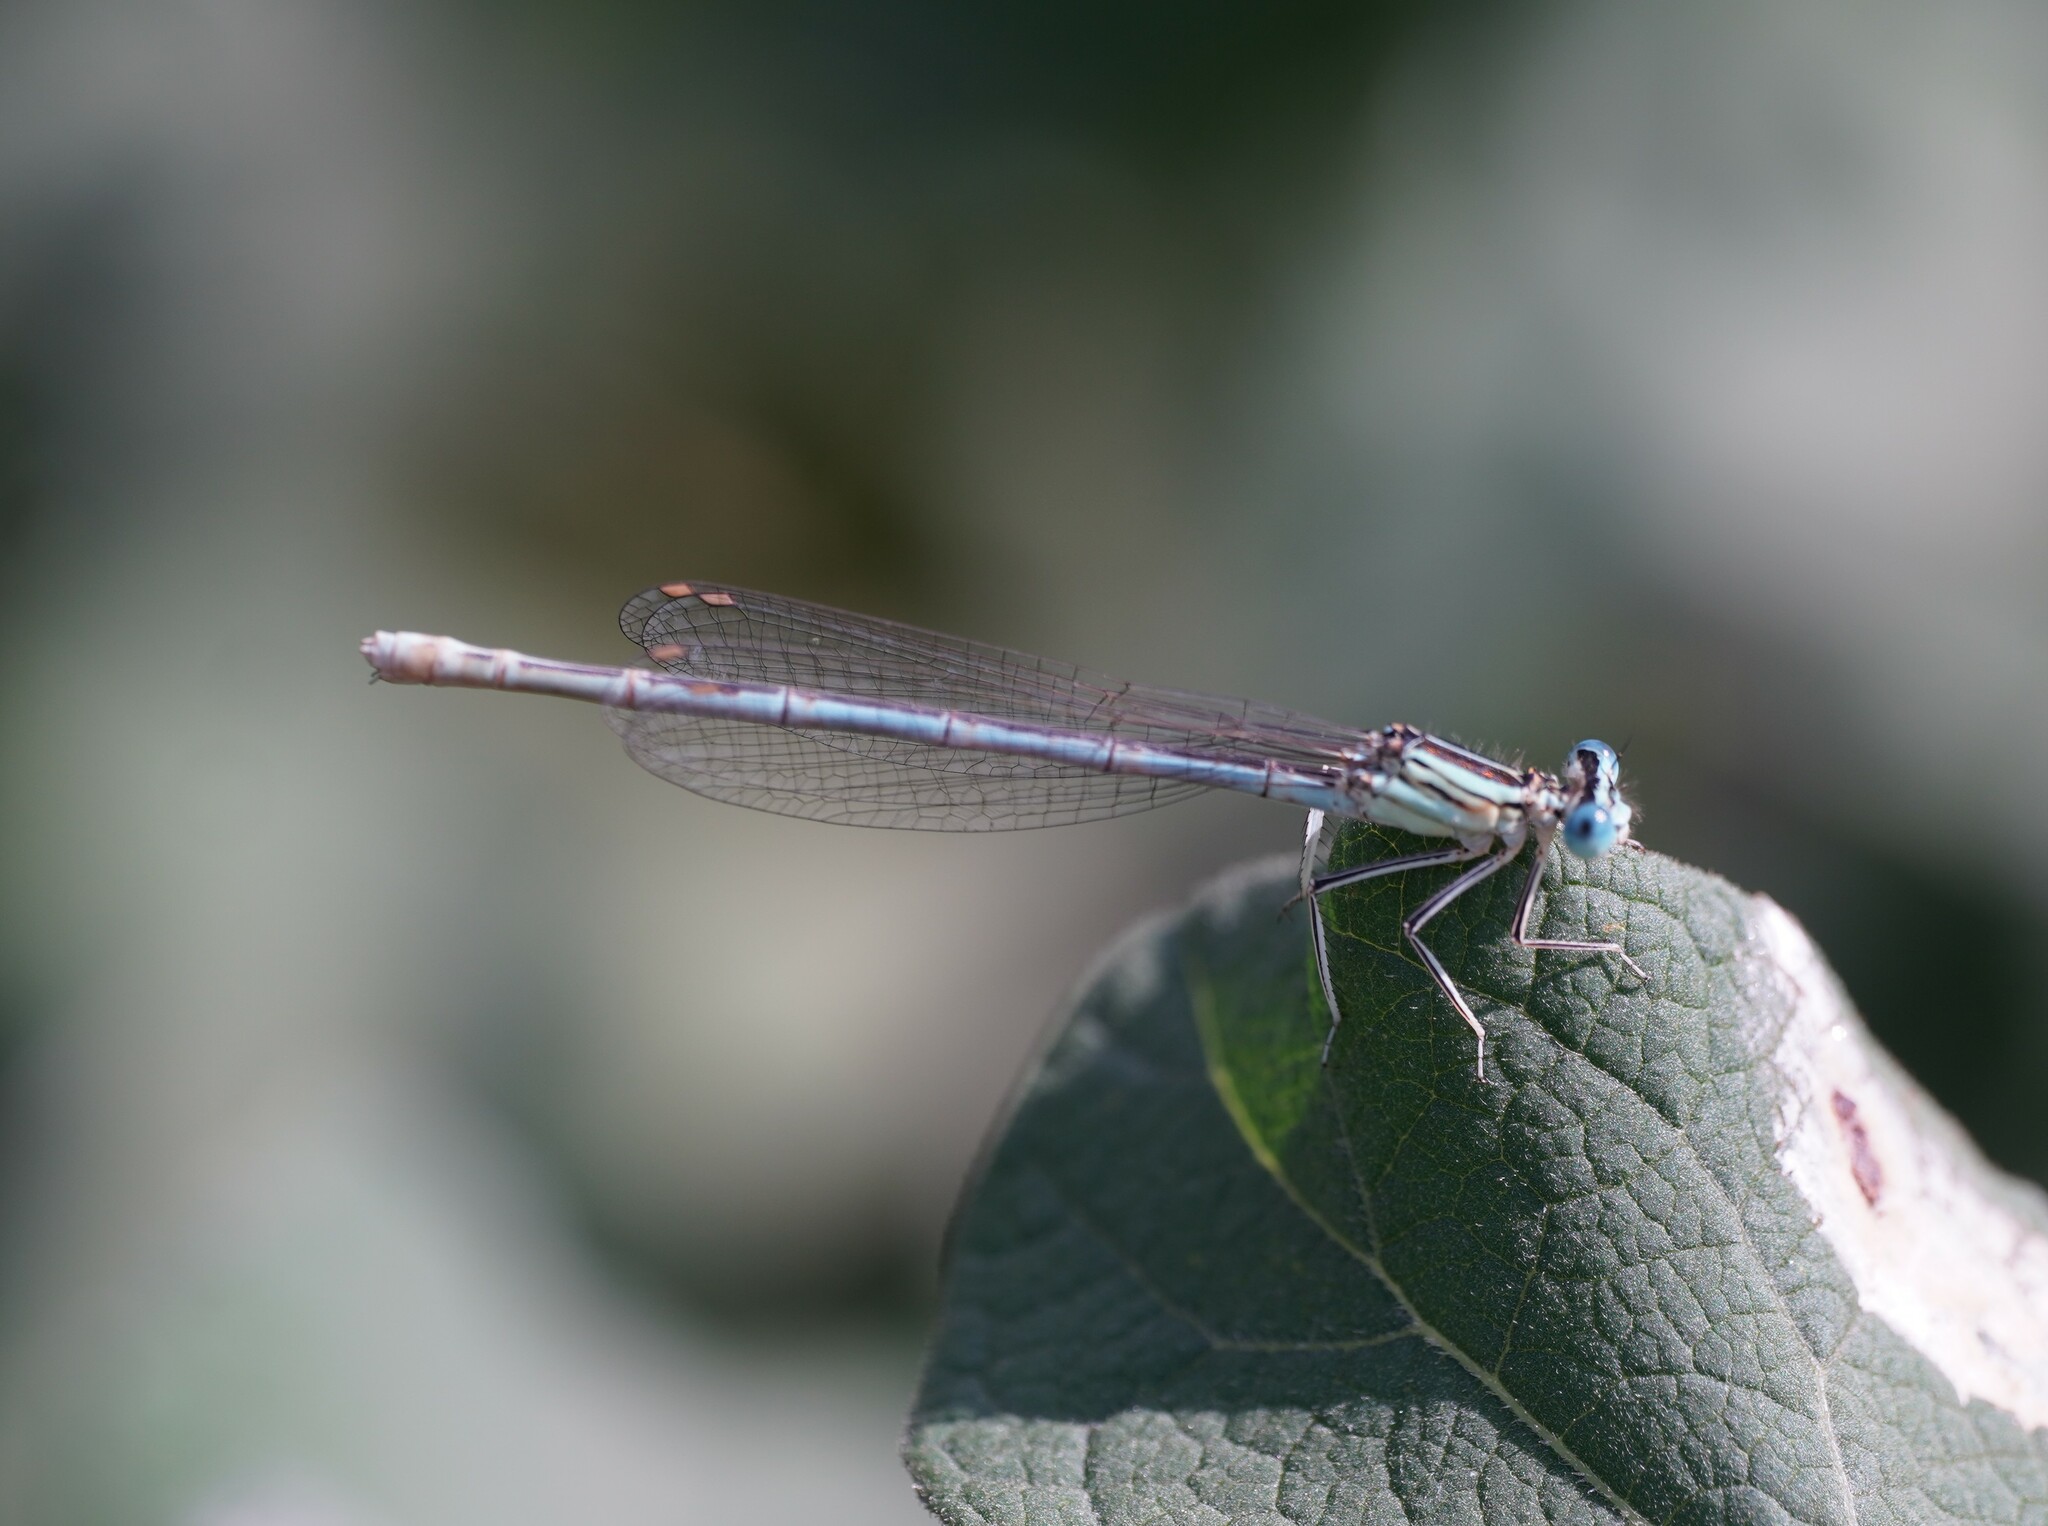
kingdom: Animalia
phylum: Arthropoda
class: Insecta
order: Odonata
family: Platycnemididae
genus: Platycnemis
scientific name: Platycnemis pennipes
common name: White-legged damselfly
